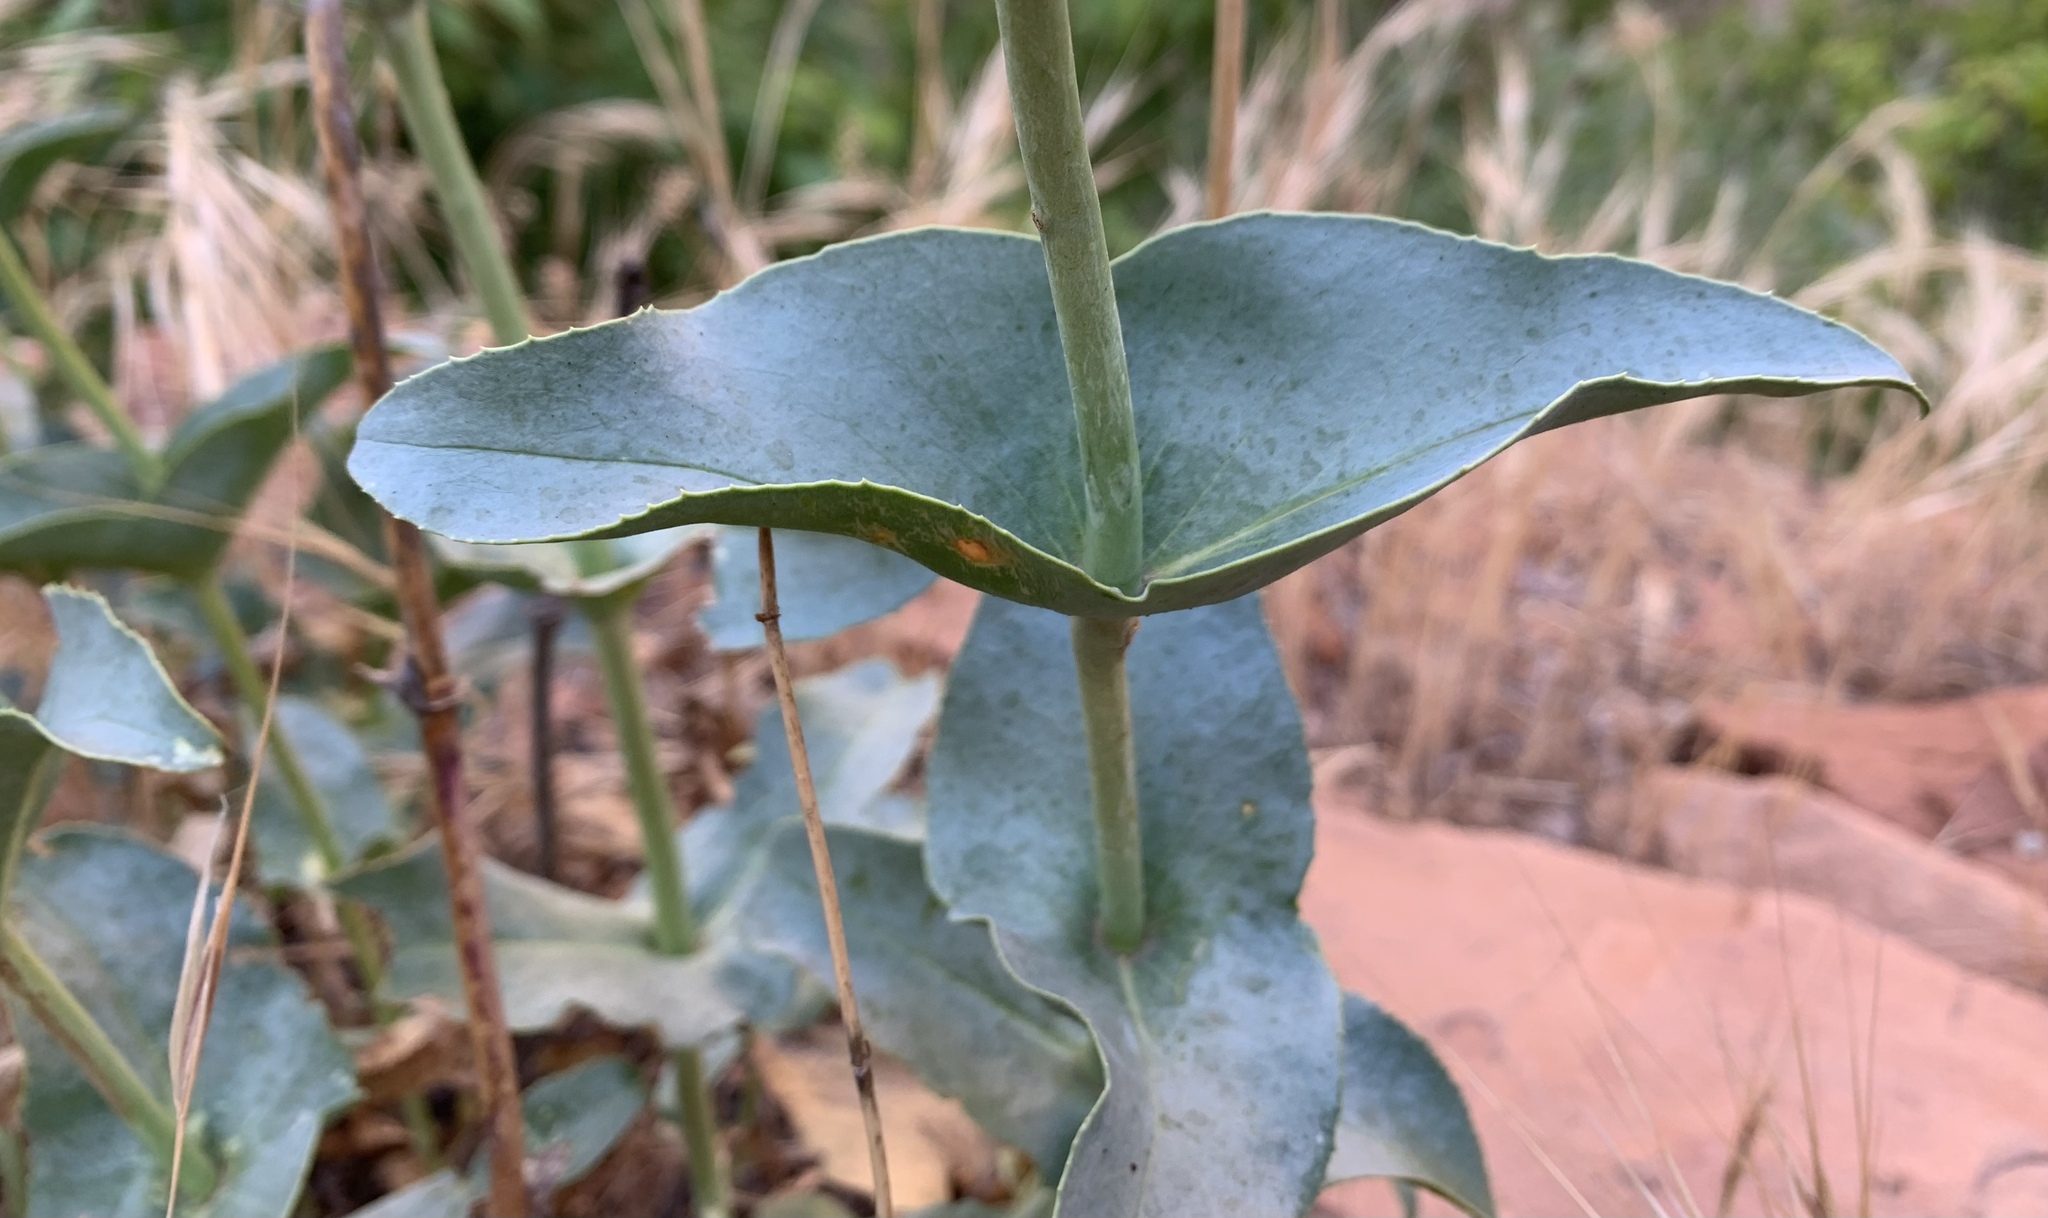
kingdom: Plantae
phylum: Tracheophyta
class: Magnoliopsida
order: Lamiales
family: Plantaginaceae
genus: Penstemon
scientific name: Penstemon palmeri
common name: Palmer penstemon
